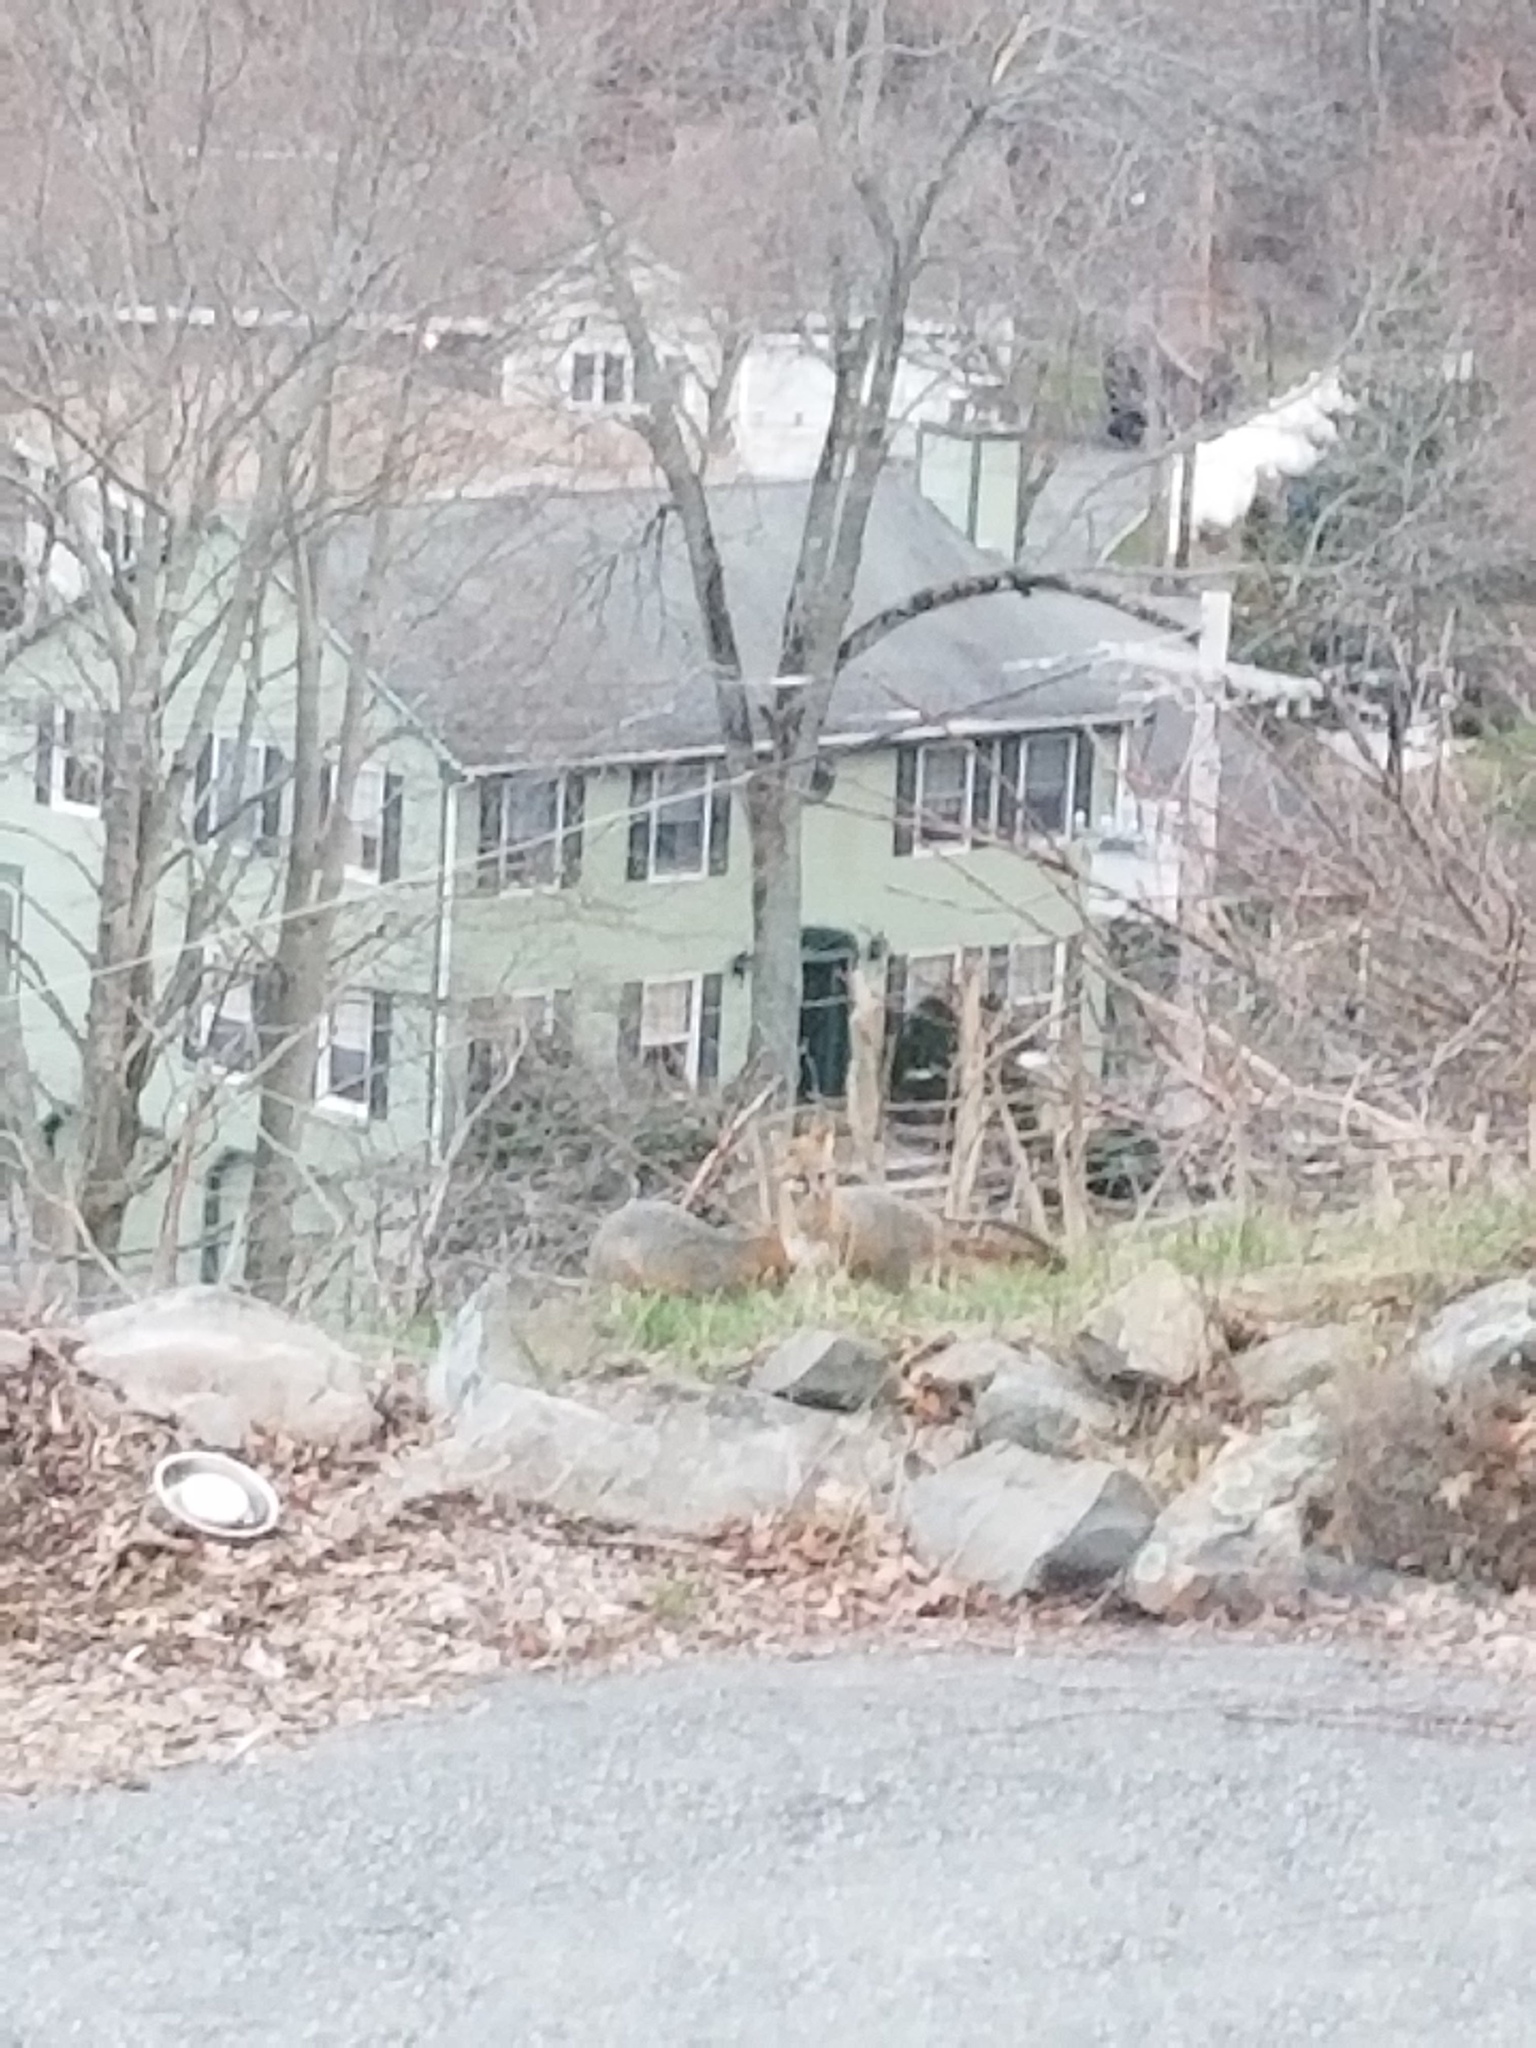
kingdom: Animalia
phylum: Chordata
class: Mammalia
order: Carnivora
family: Canidae
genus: Urocyon
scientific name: Urocyon cinereoargenteus
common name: Gray fox
